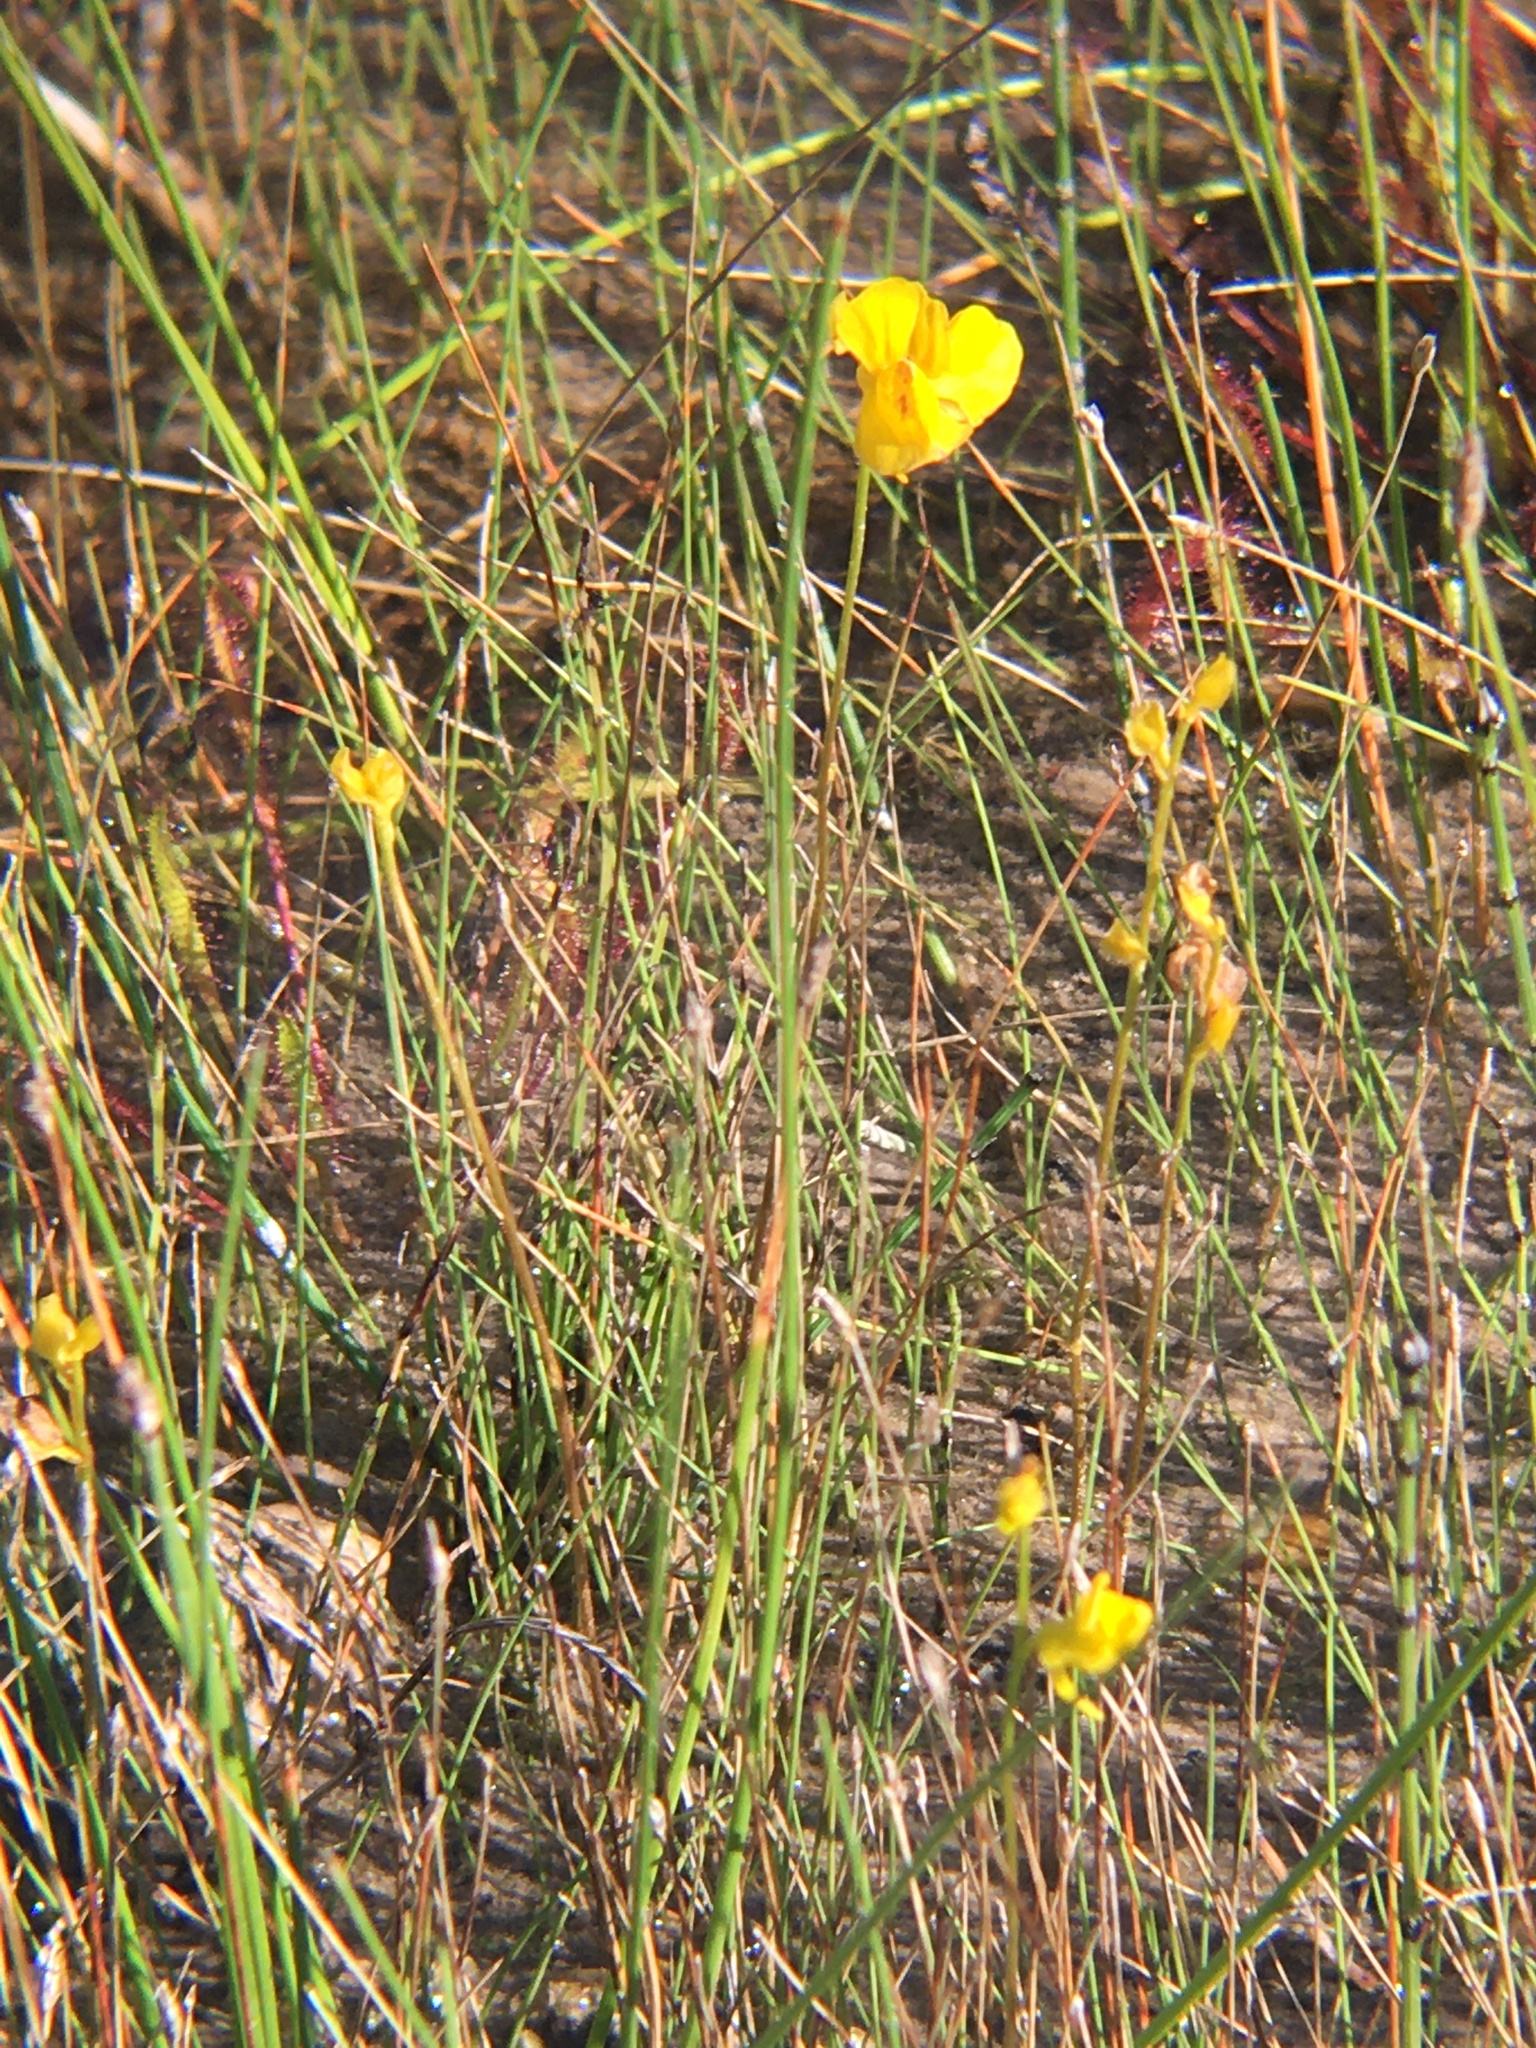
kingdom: Plantae
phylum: Tracheophyta
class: Magnoliopsida
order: Lamiales
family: Lentibulariaceae
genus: Utricularia
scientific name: Utricularia cornuta
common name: Horned bladderwort
